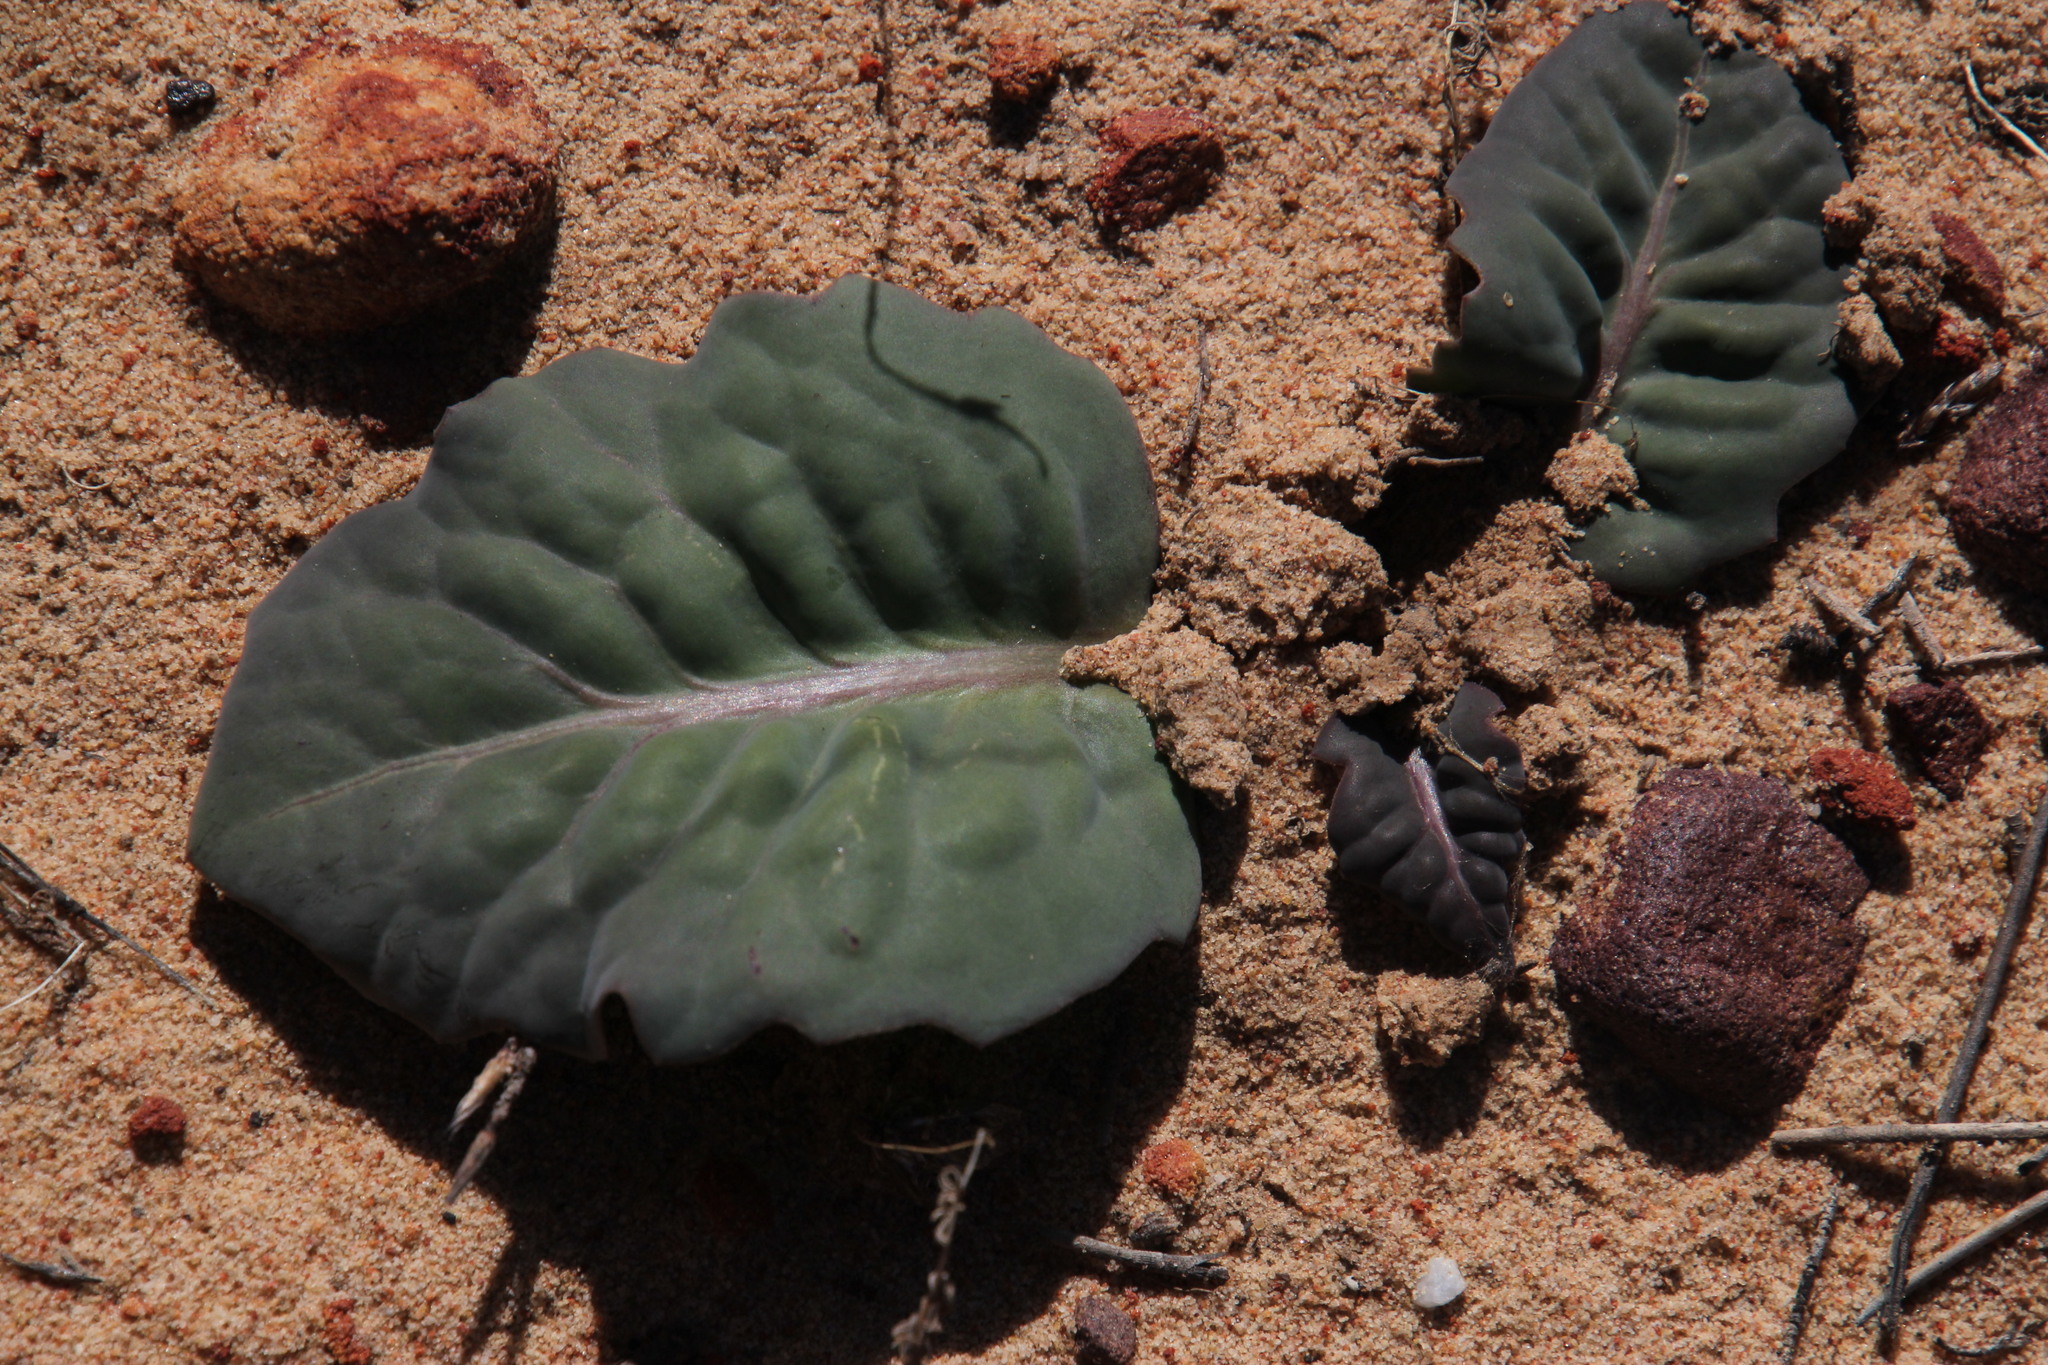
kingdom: Plantae
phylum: Tracheophyta
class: Magnoliopsida
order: Asterales
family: Asteraceae
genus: Othonna
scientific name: Othonna oleracea
